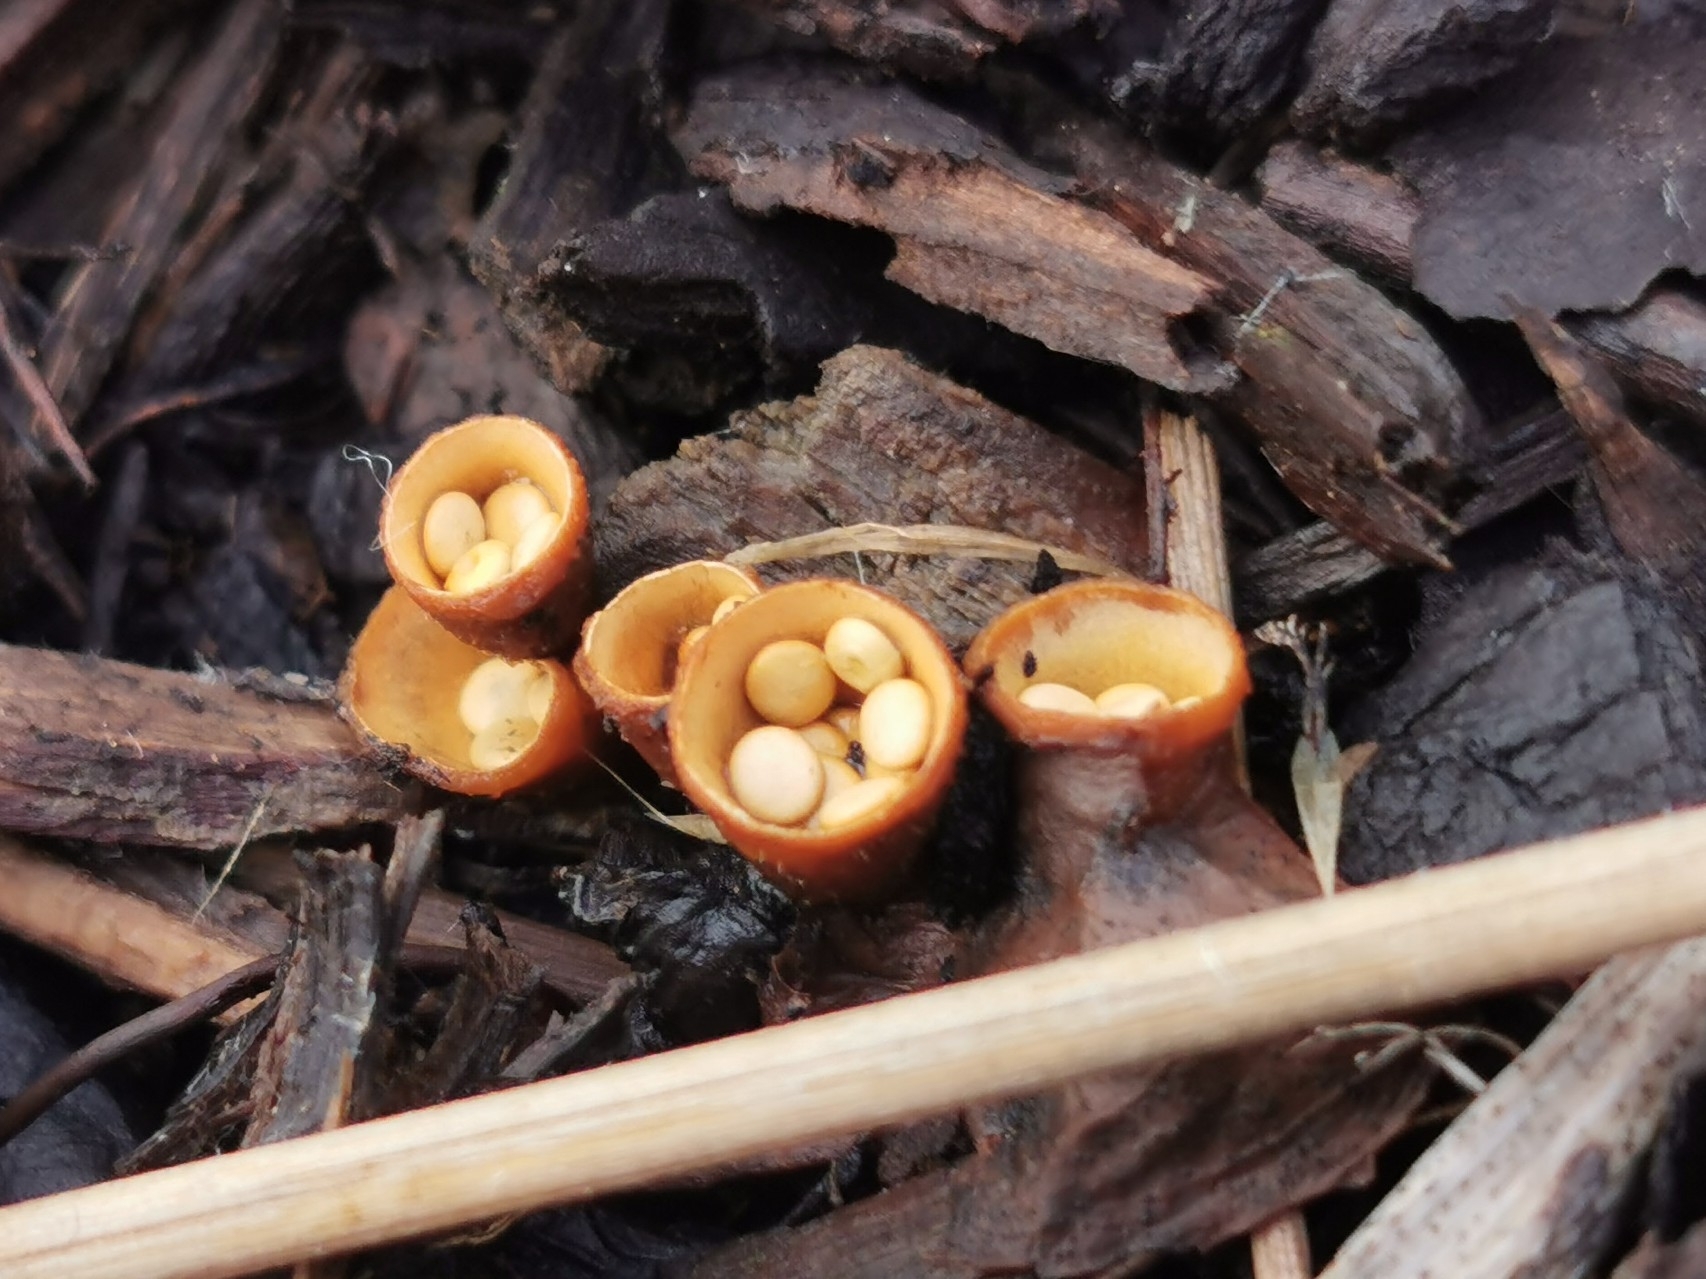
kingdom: Fungi
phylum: Basidiomycota
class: Agaricomycetes
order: Agaricales
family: Nidulariaceae
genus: Crucibulum
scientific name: Crucibulum laeve
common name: Common bird's nest
